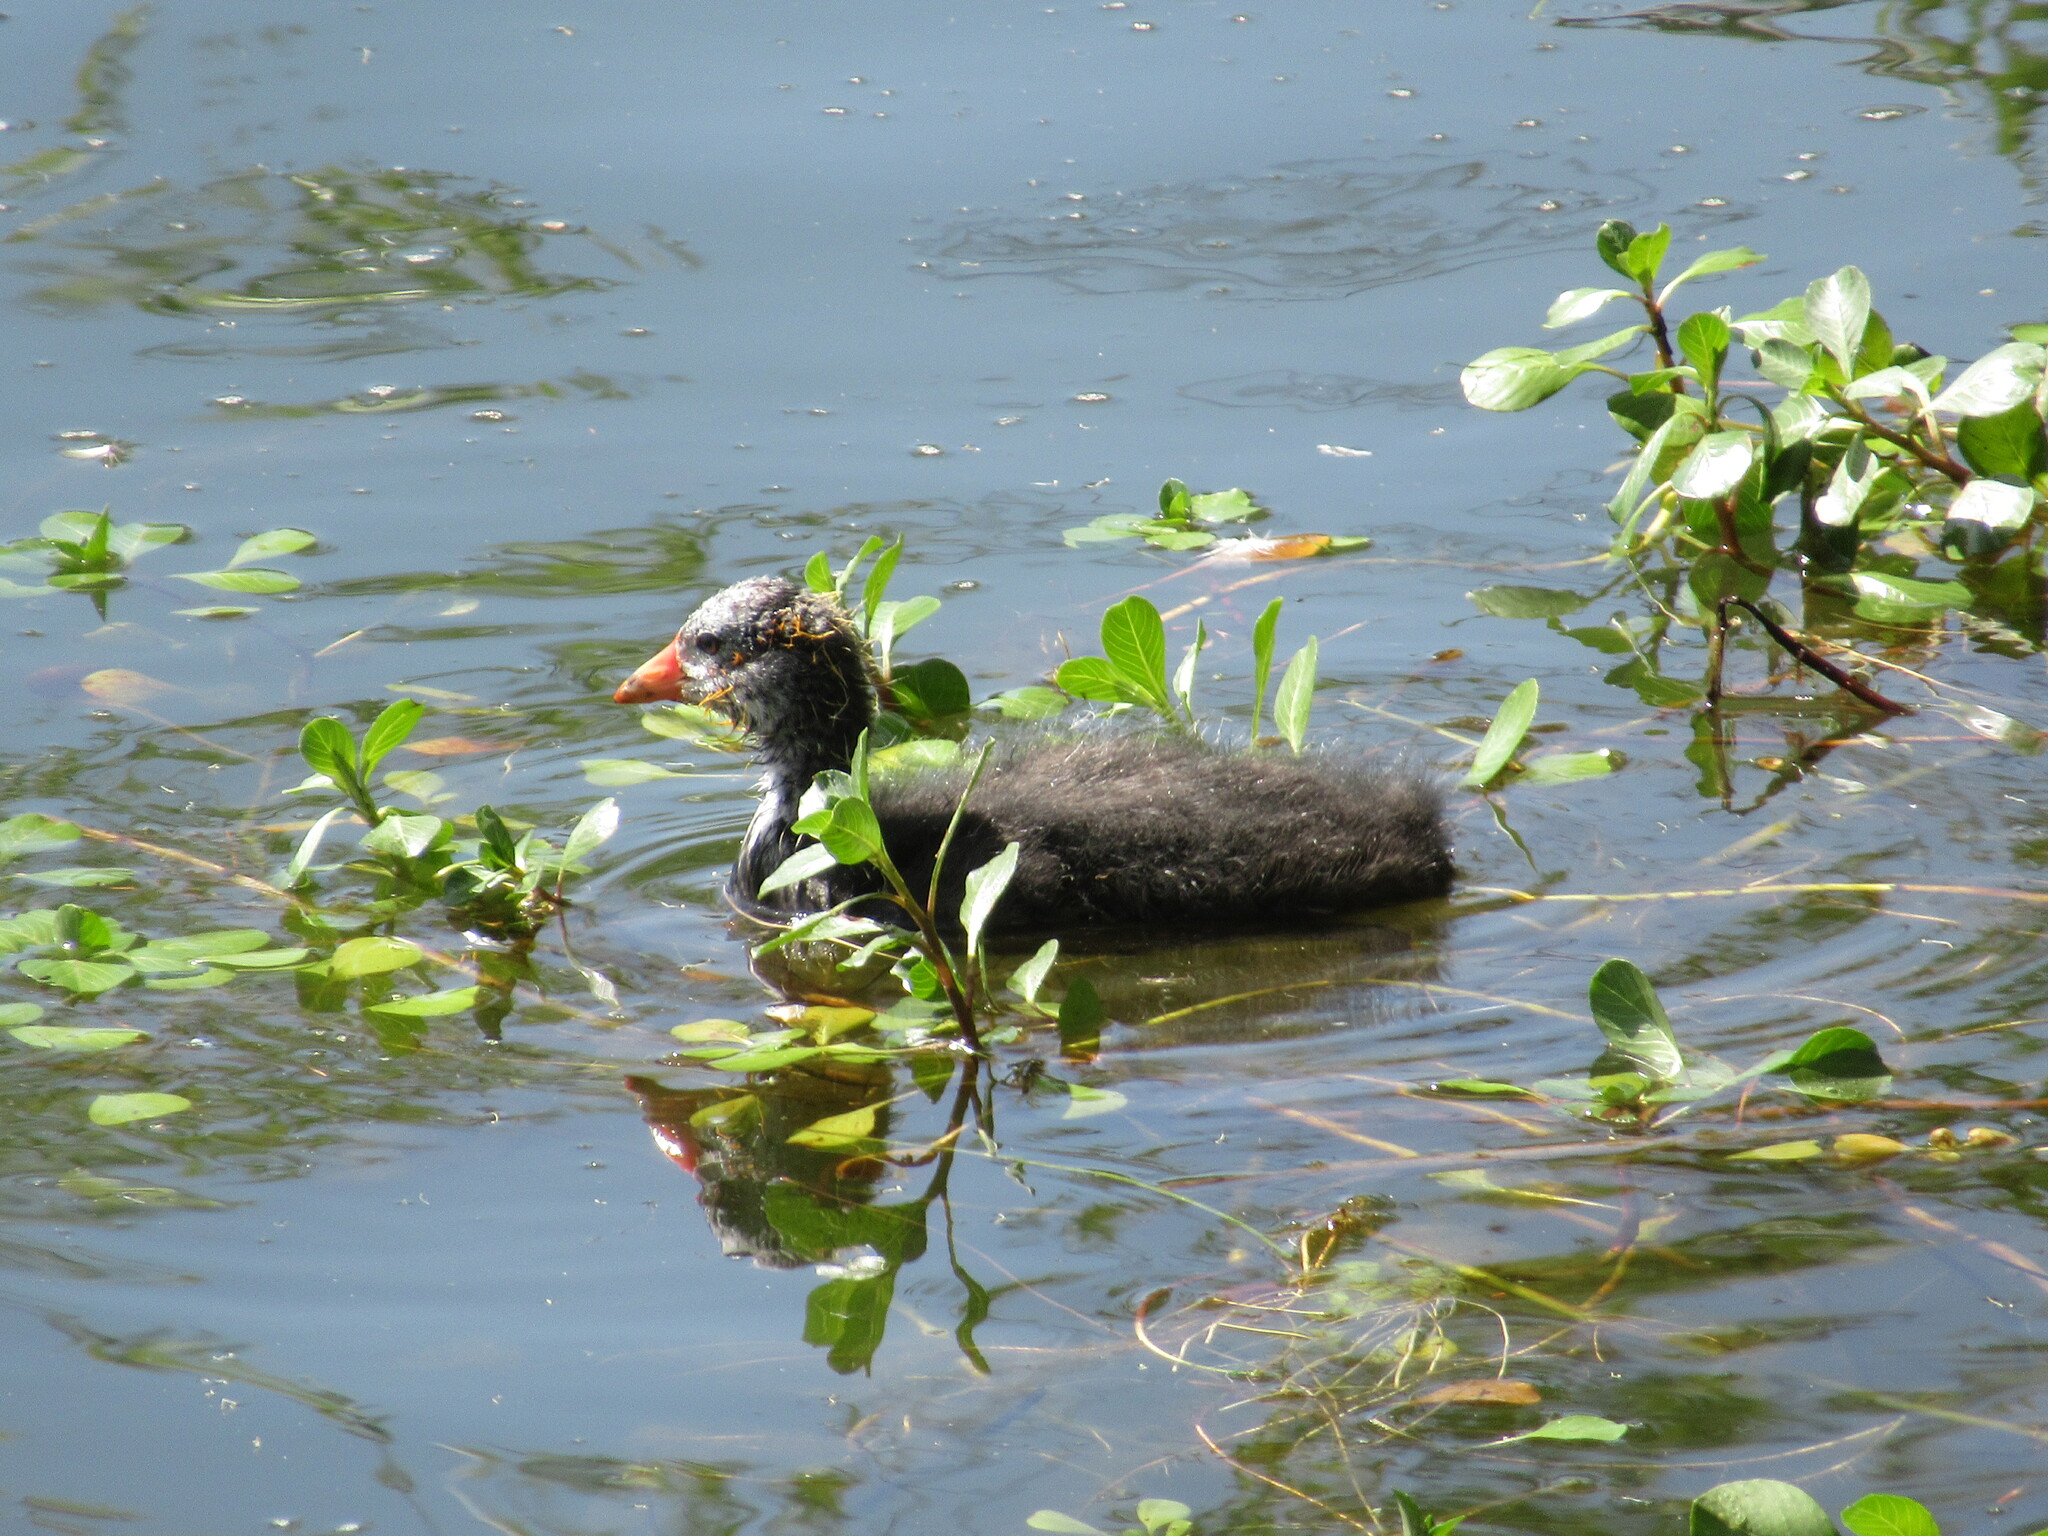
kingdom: Animalia
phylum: Chordata
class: Aves
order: Gruiformes
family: Rallidae
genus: Fulica
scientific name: Fulica americana
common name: American coot
